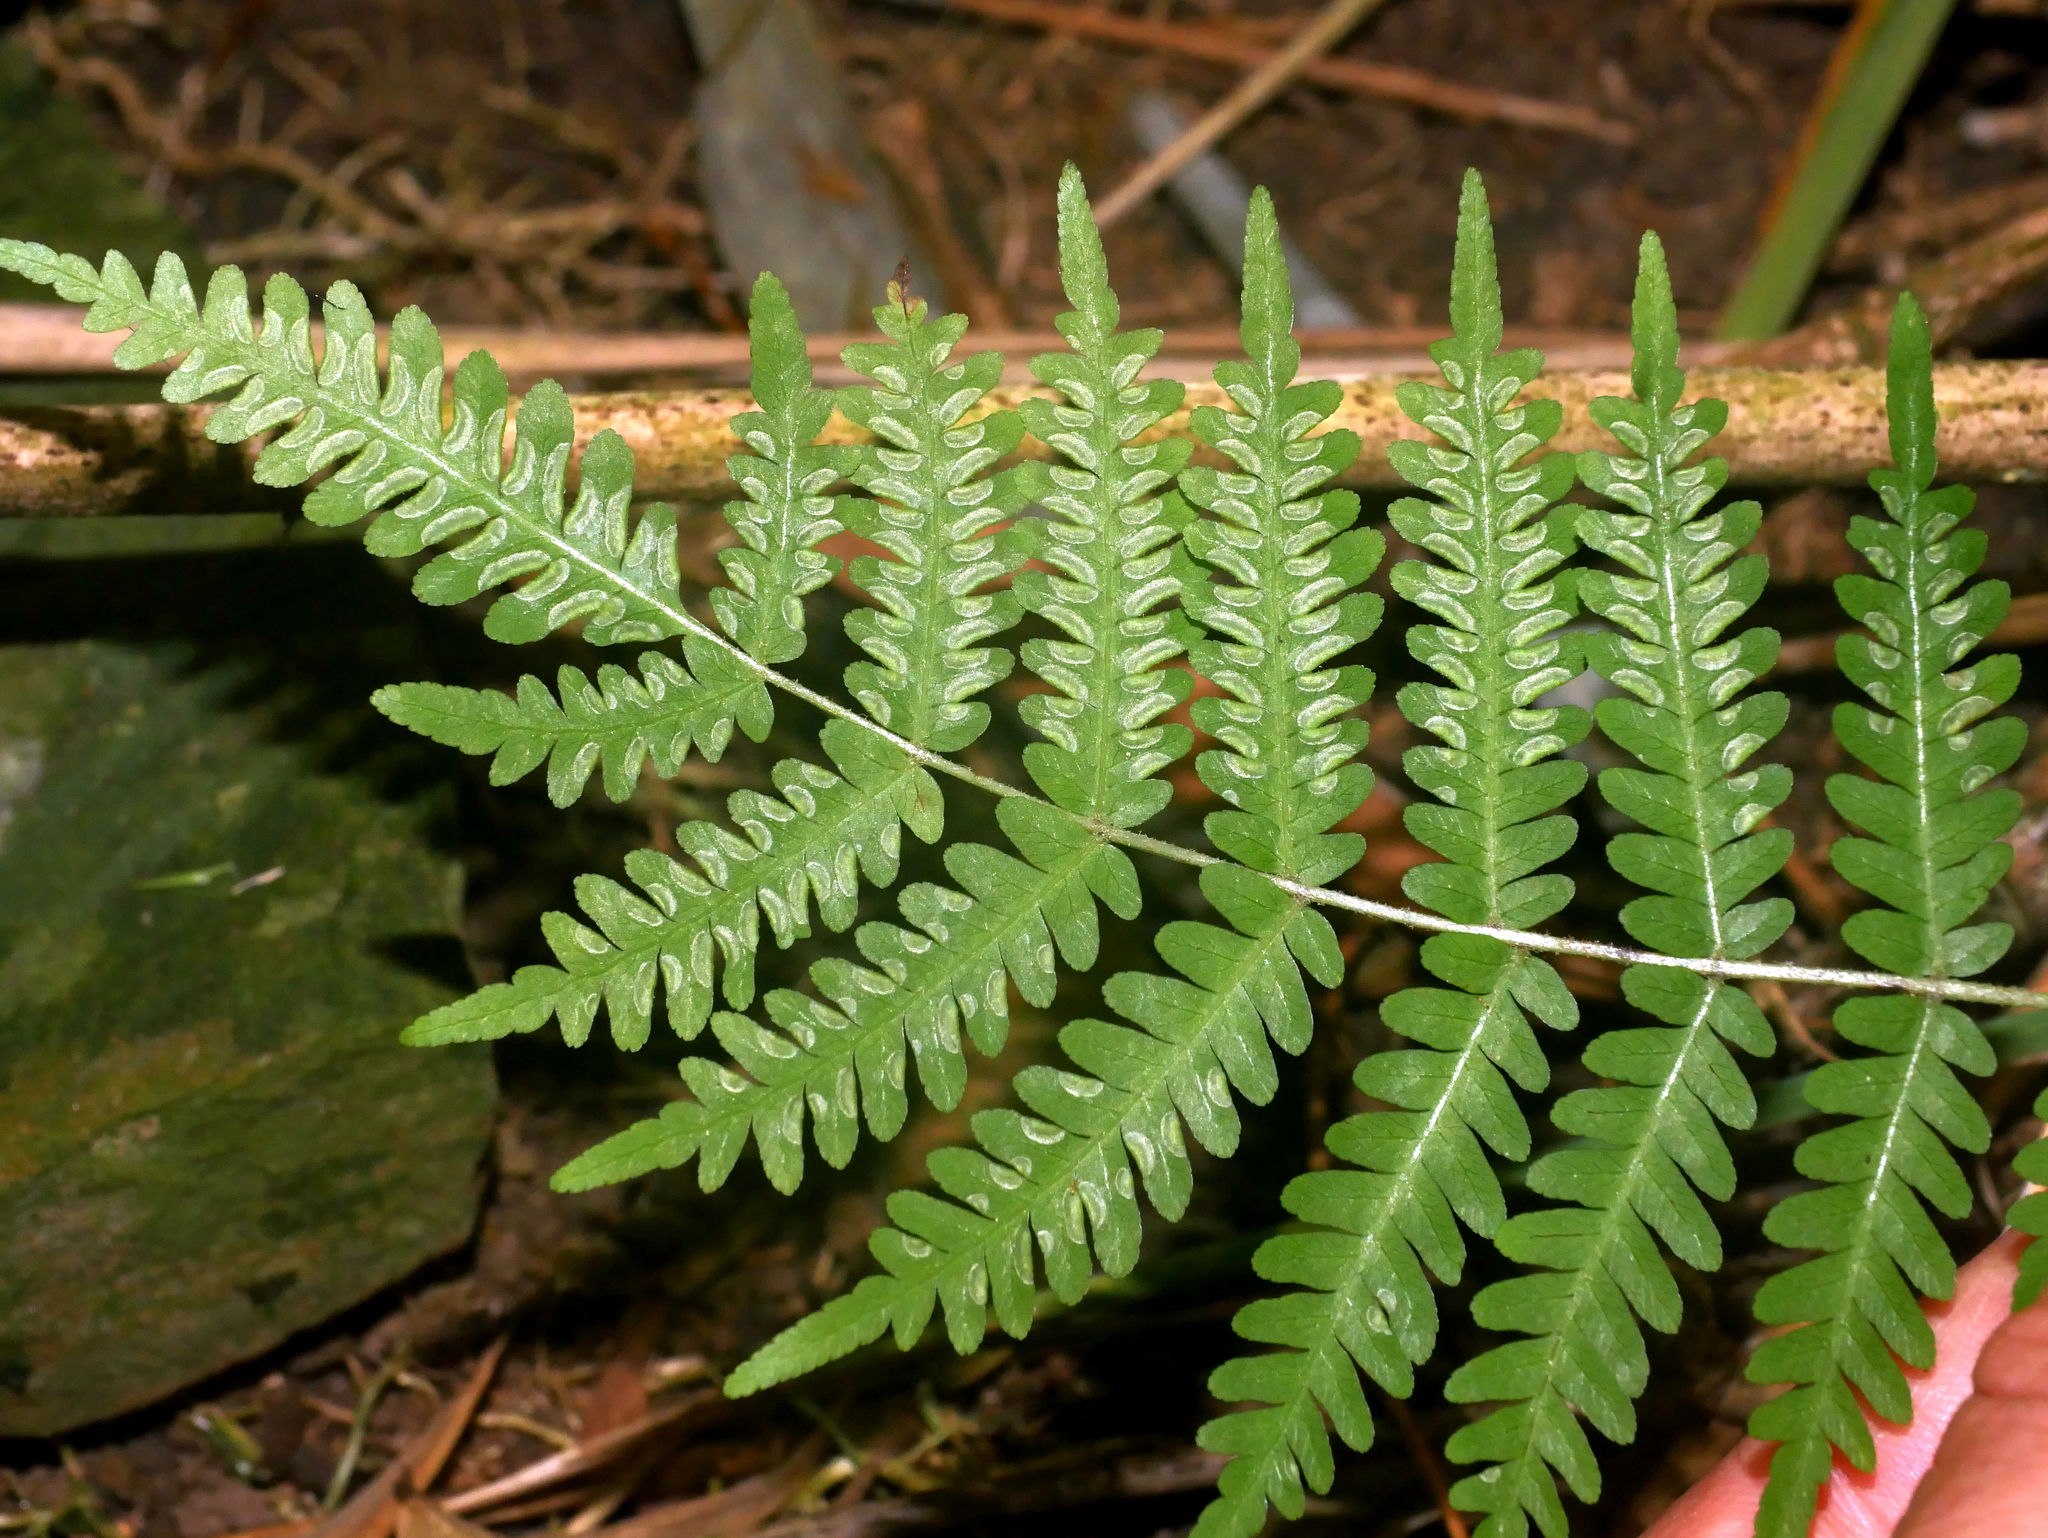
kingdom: Plantae
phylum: Tracheophyta
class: Polypodiopsida
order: Polypodiales
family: Pteridaceae
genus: Pteris
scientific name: Pteris longipes
